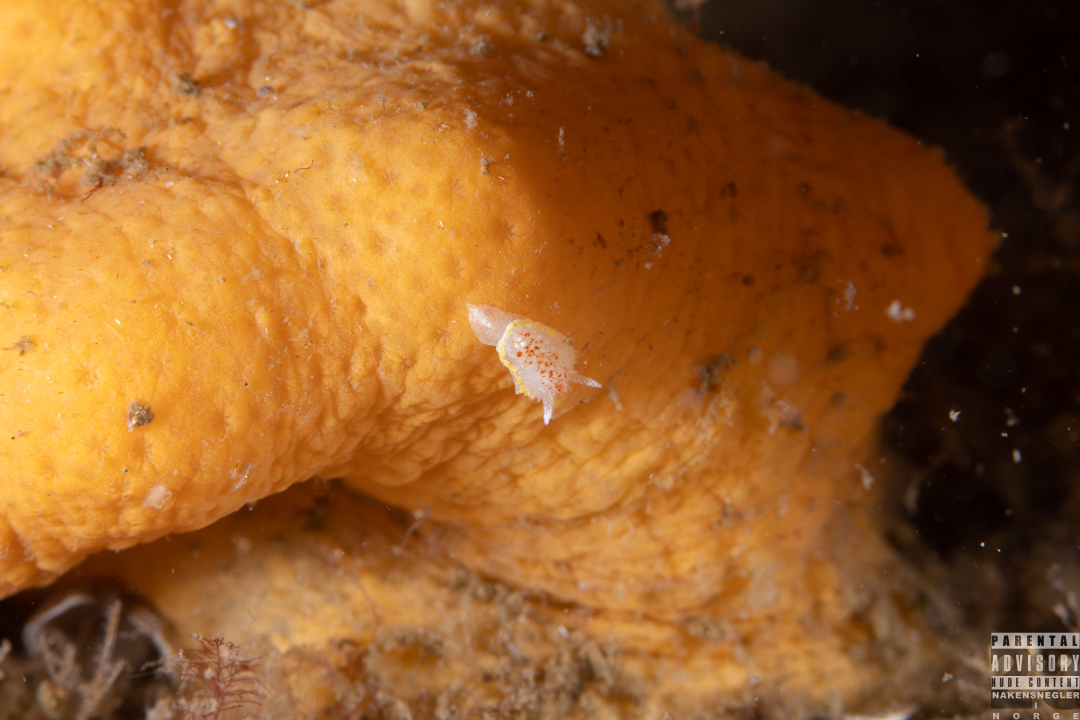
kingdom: Animalia
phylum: Mollusca
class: Gastropoda
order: Nudibranchia
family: Calycidorididae
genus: Diaphorodoris
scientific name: Diaphorodoris luteocincta
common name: Fried egg nudibranch
